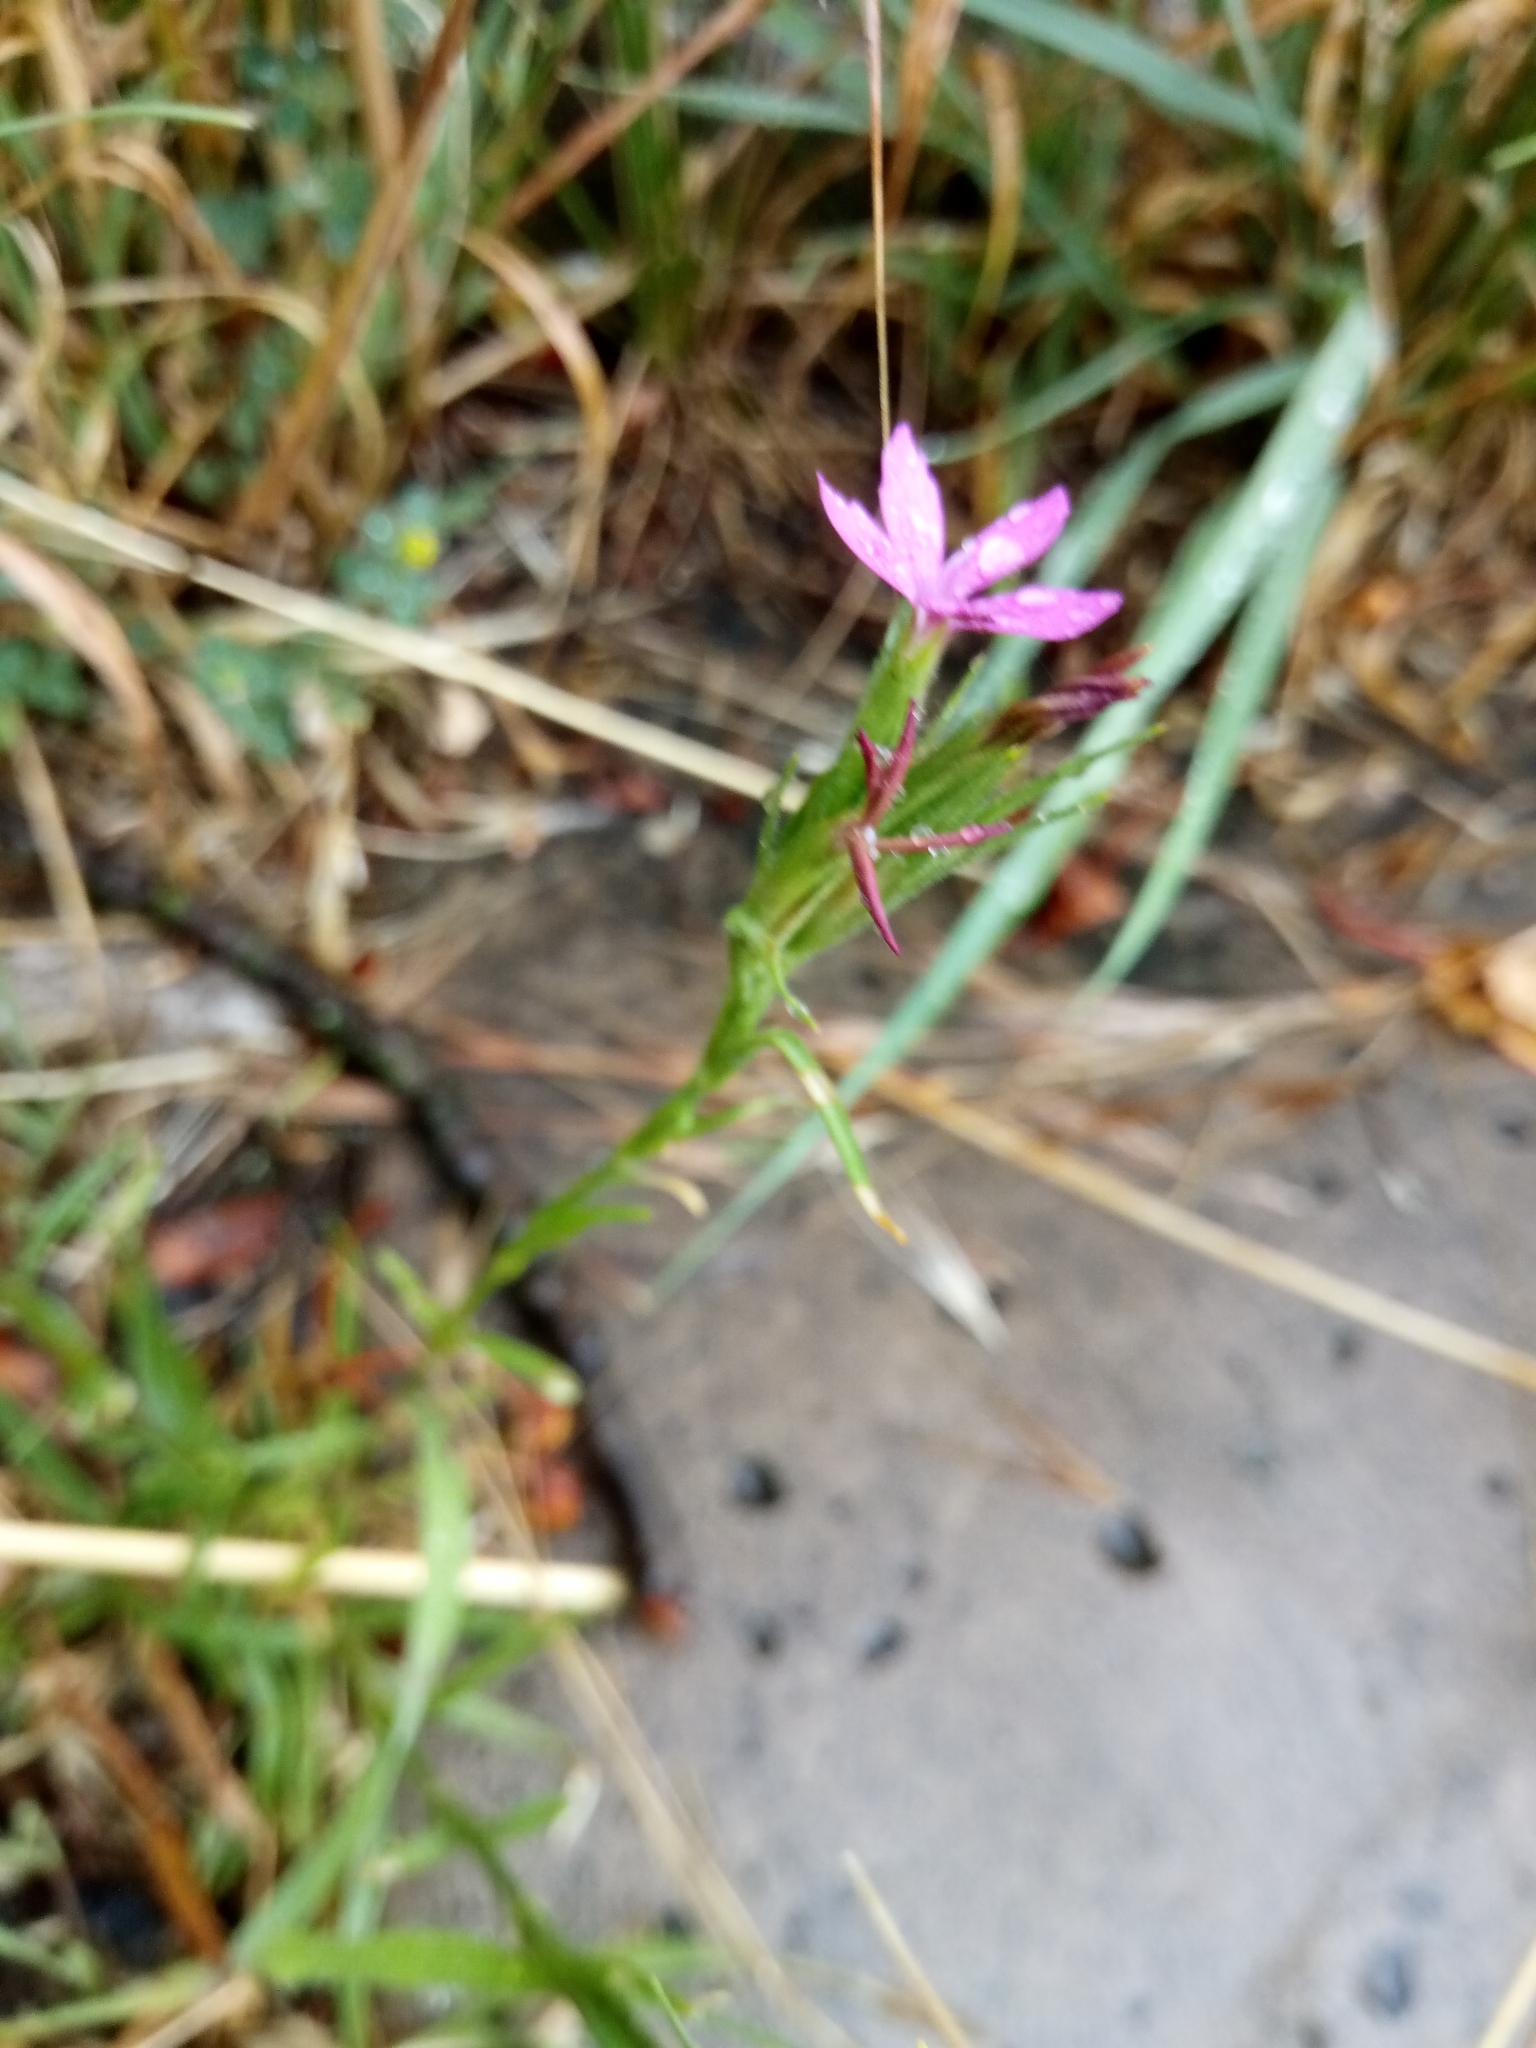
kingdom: Plantae
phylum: Tracheophyta
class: Magnoliopsida
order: Caryophyllales
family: Caryophyllaceae
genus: Dianthus
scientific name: Dianthus armeria
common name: Deptford pink
